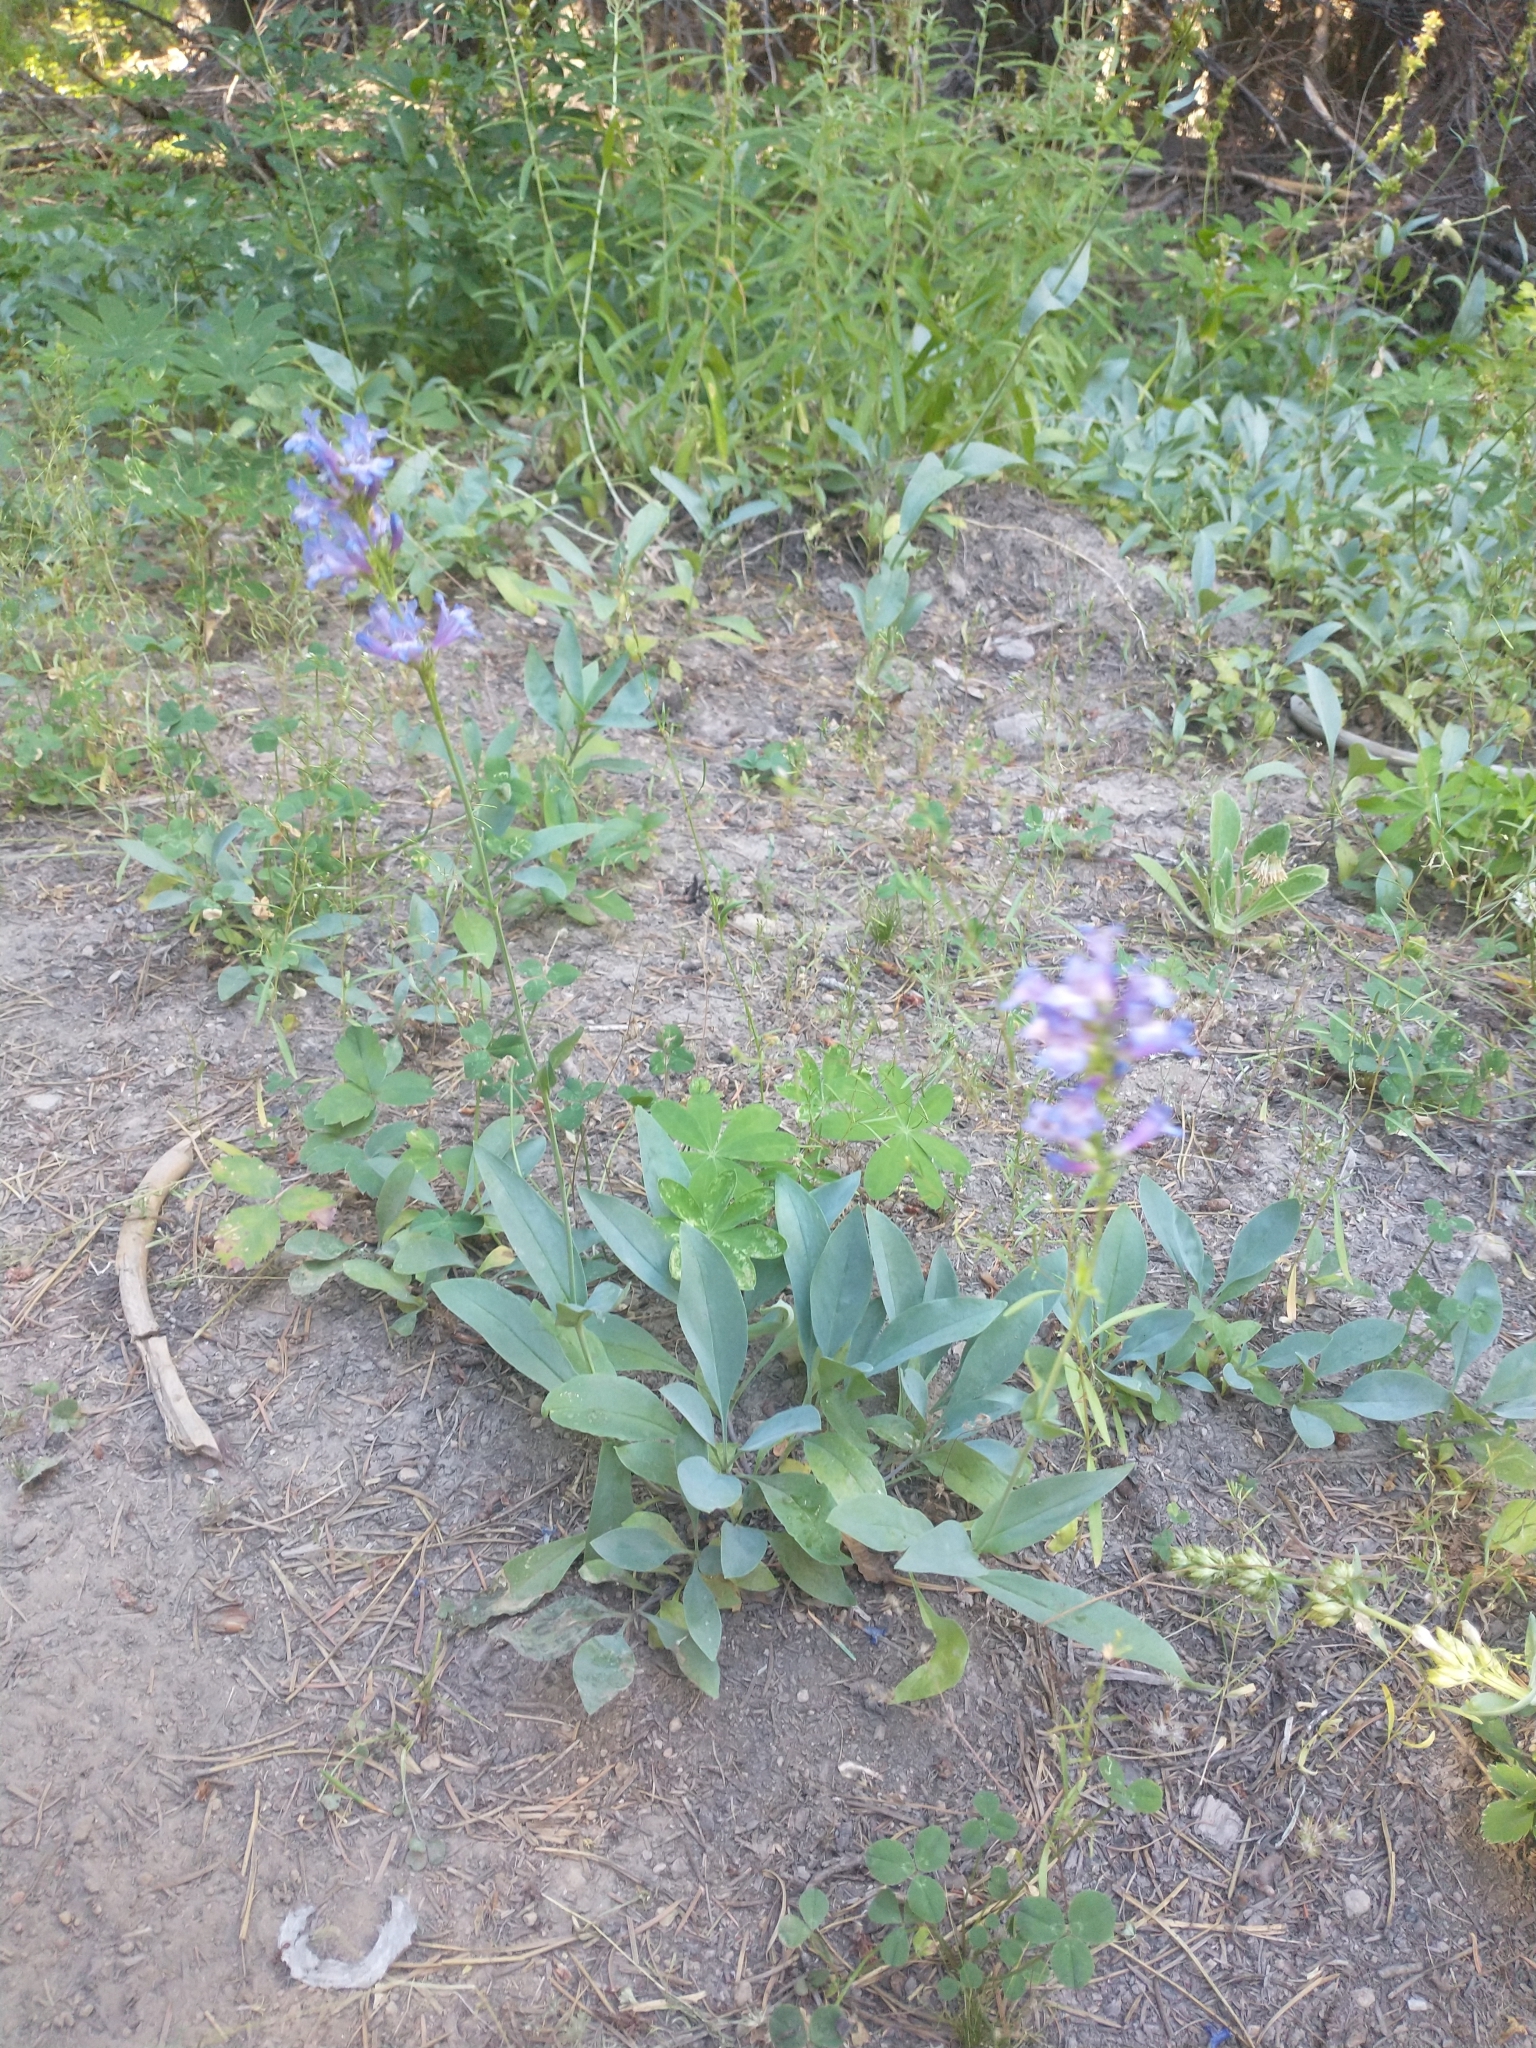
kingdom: Plantae
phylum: Tracheophyta
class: Magnoliopsida
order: Lamiales
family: Plantaginaceae
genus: Penstemon
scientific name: Penstemon euglaucus
